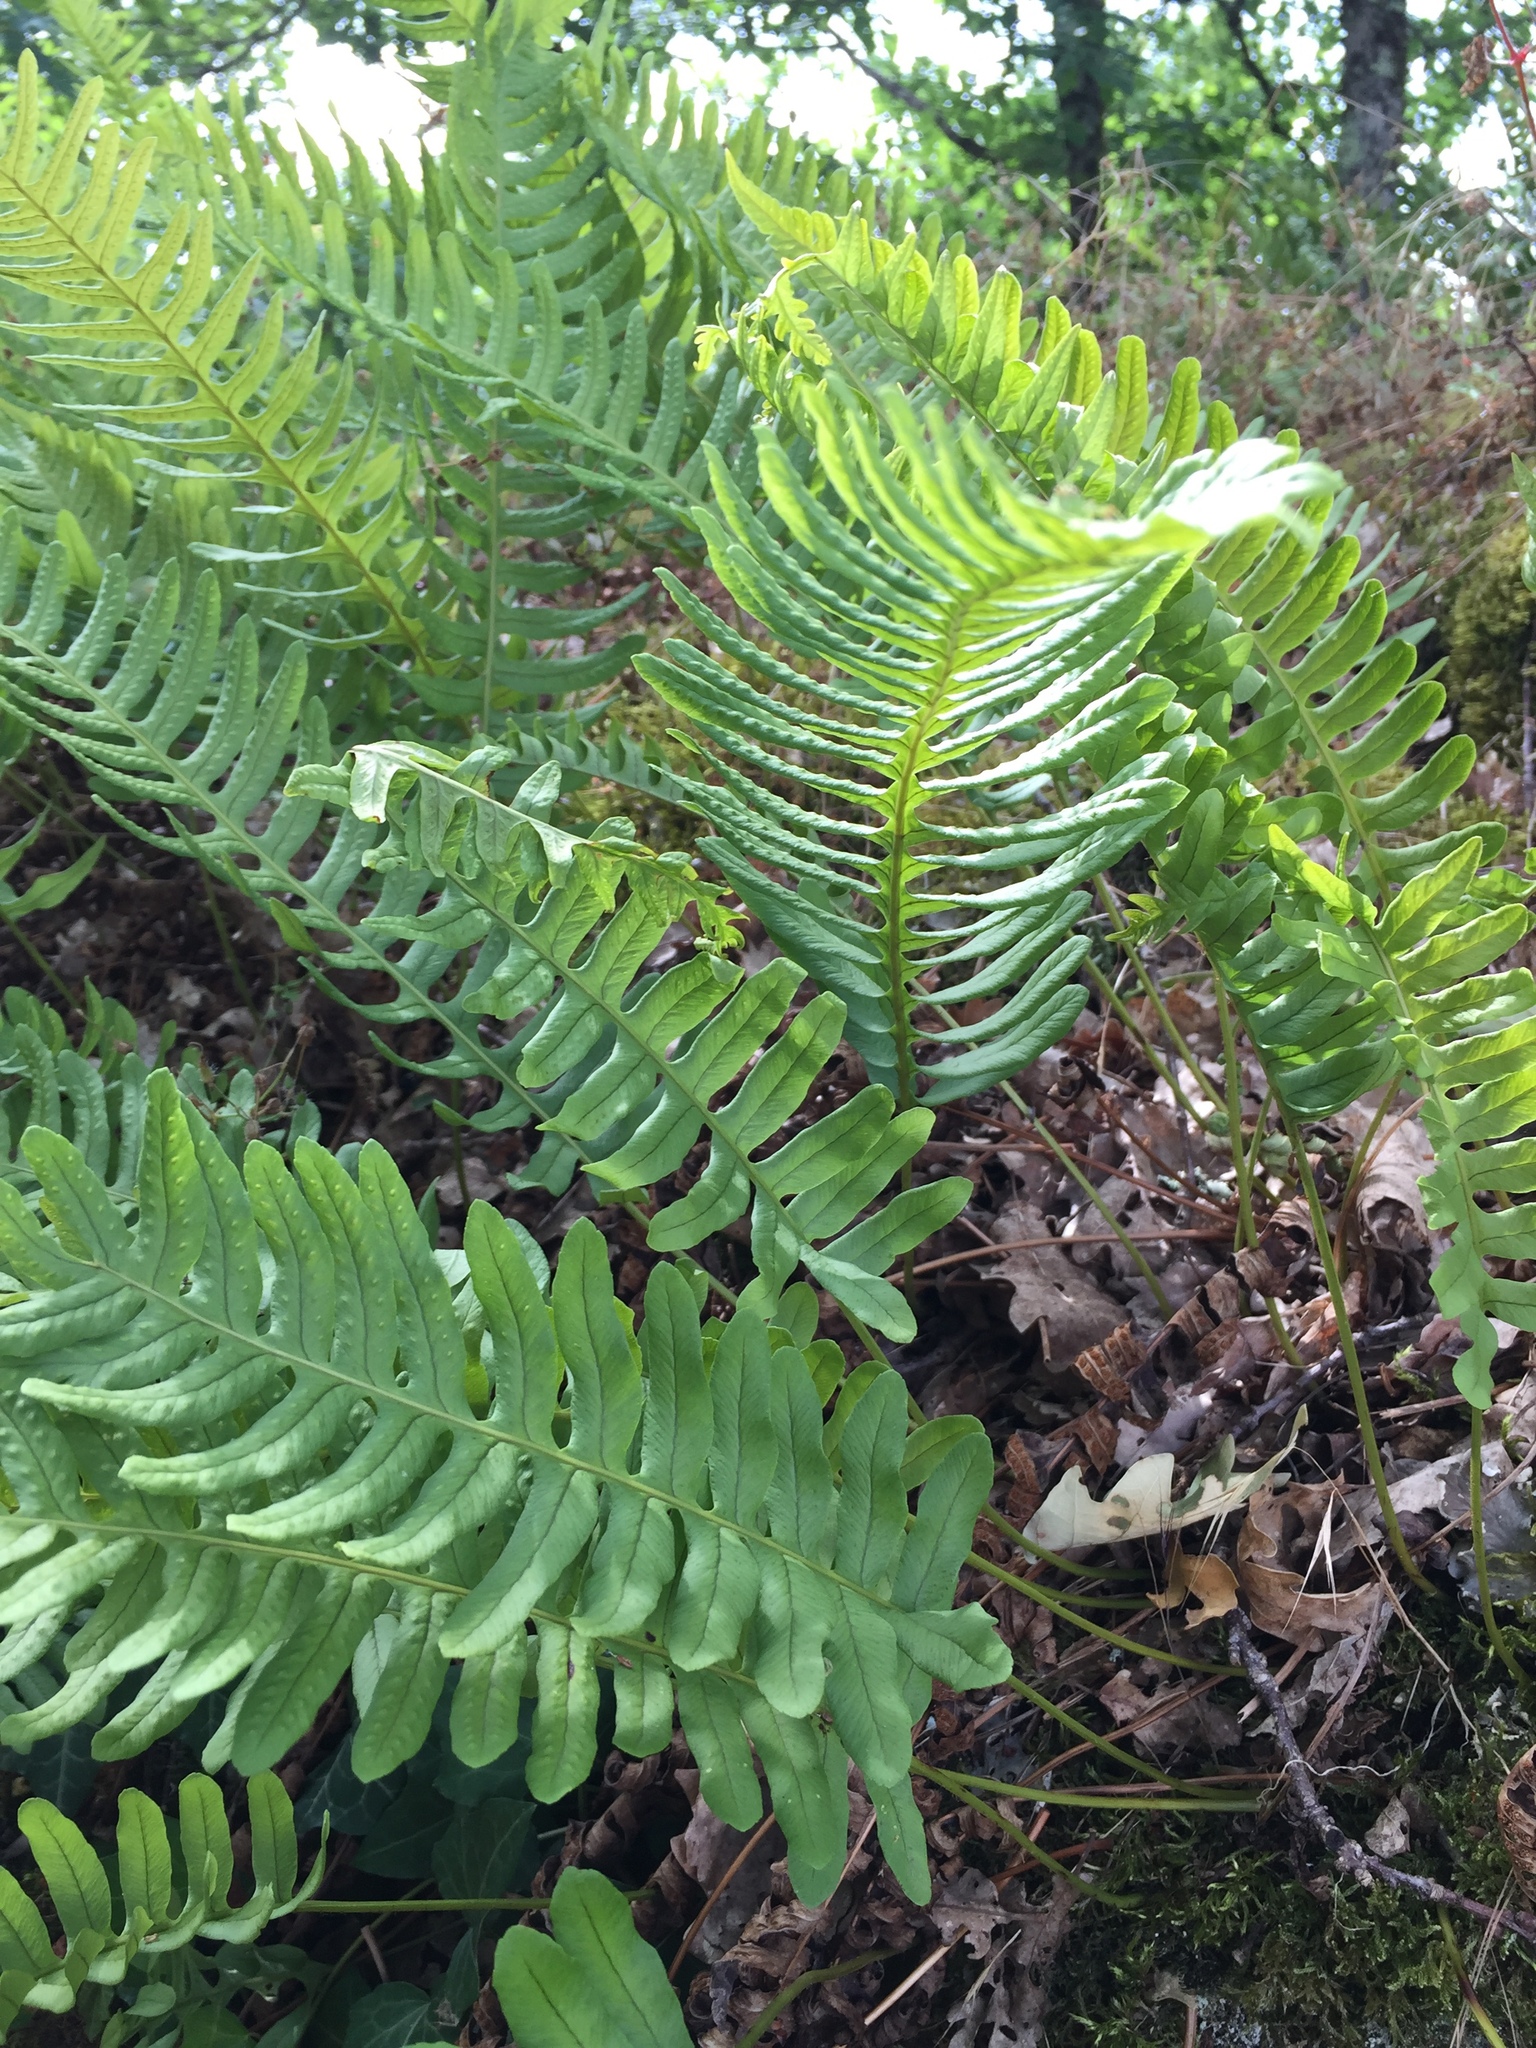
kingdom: Plantae
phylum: Tracheophyta
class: Polypodiopsida
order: Polypodiales
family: Polypodiaceae
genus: Polypodium
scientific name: Polypodium vulgare
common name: Common polypody
